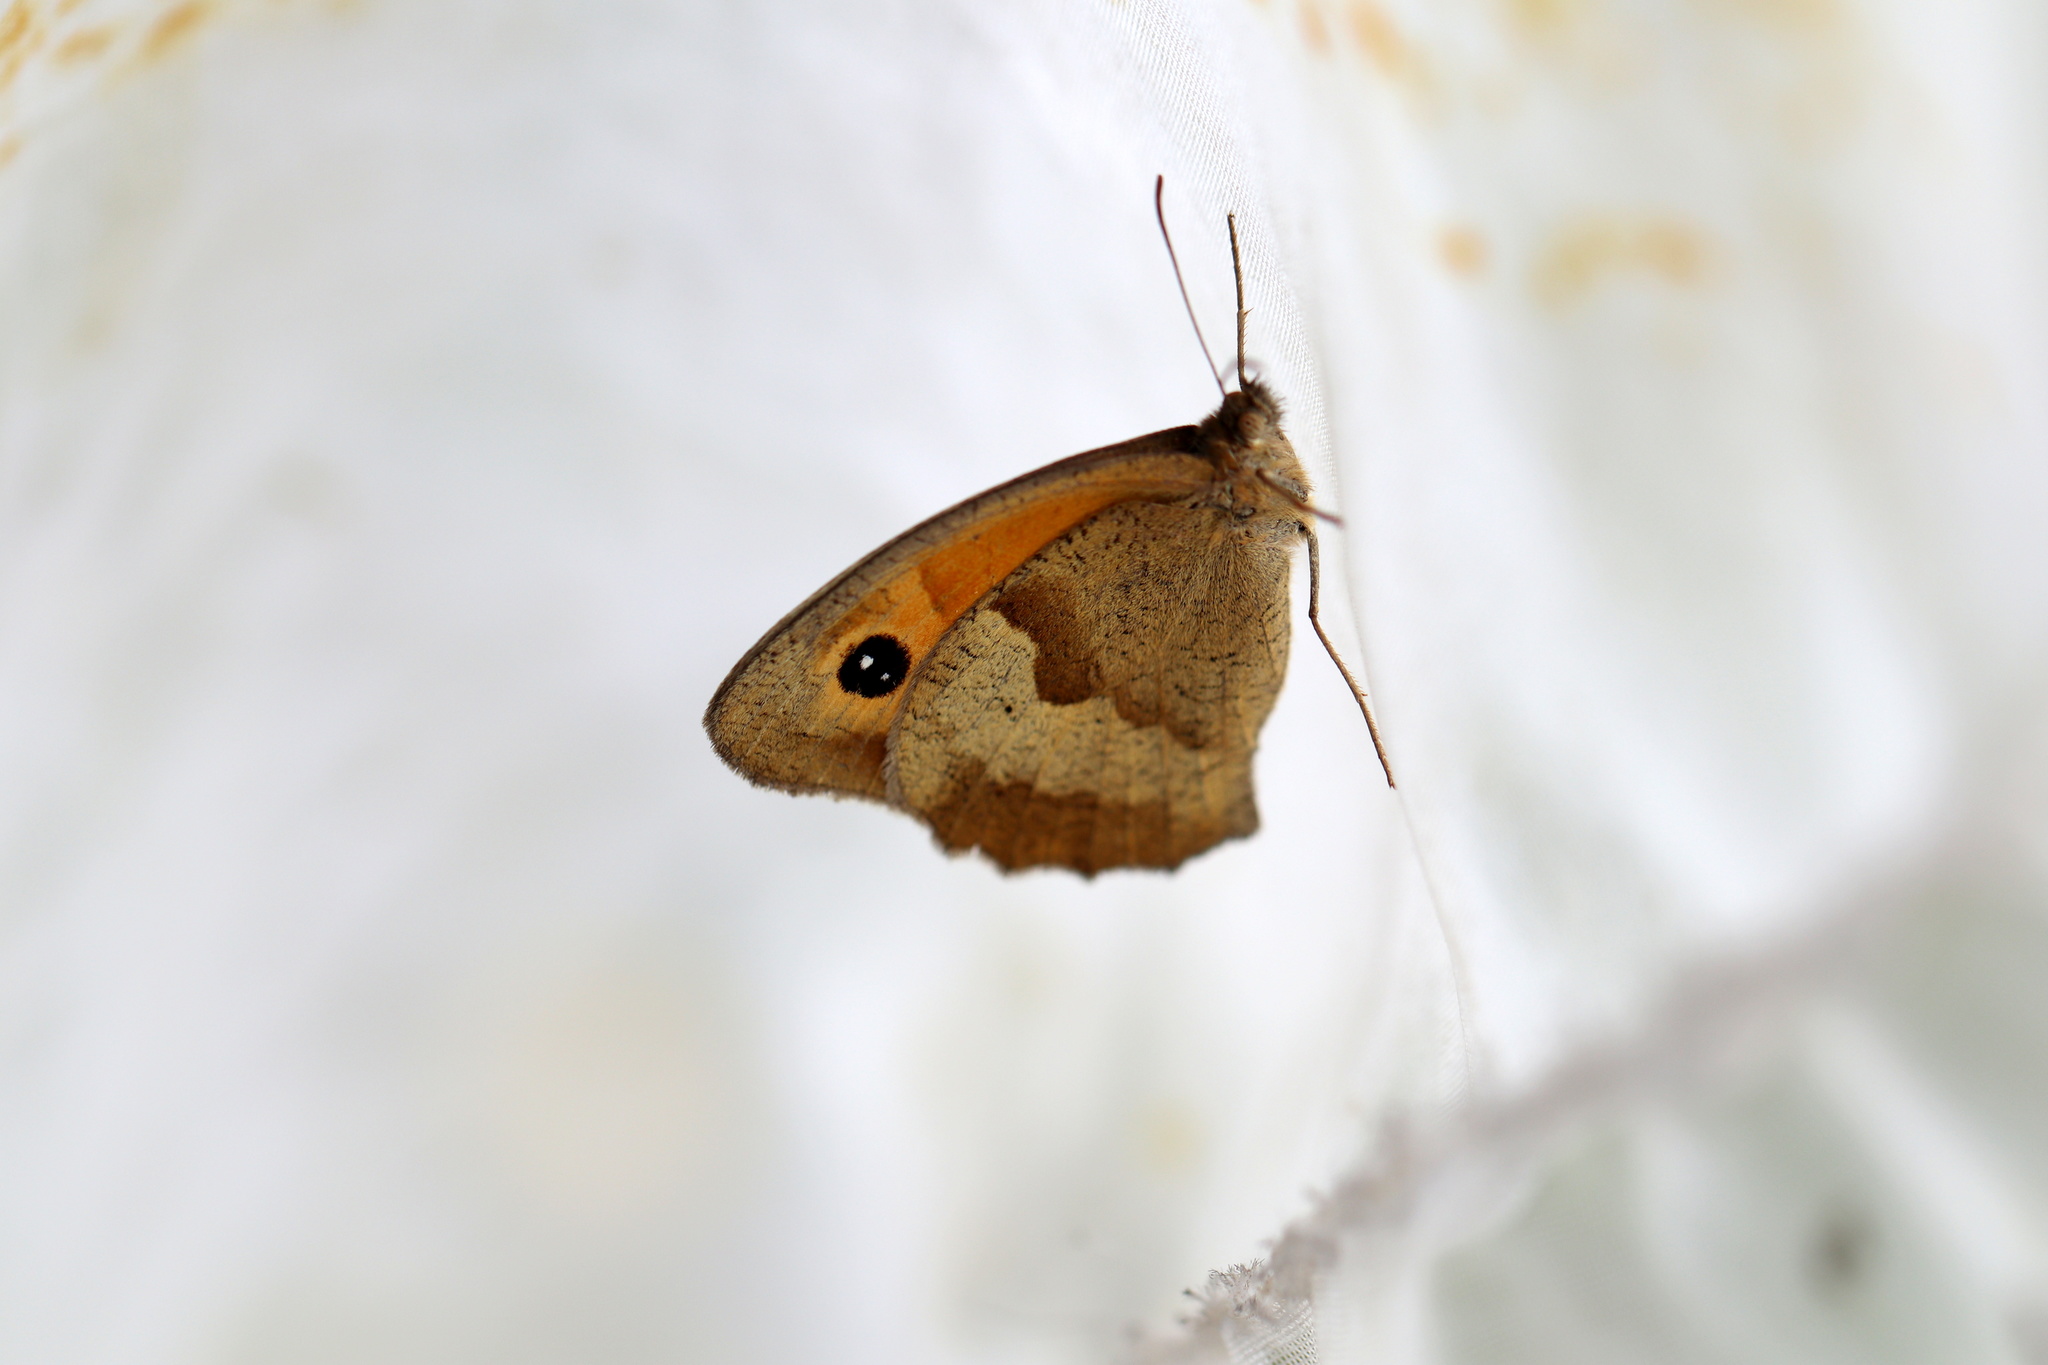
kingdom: Animalia
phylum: Arthropoda
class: Insecta
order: Lepidoptera
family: Nymphalidae
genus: Maniola
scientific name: Maniola jurtina
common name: Meadow brown
